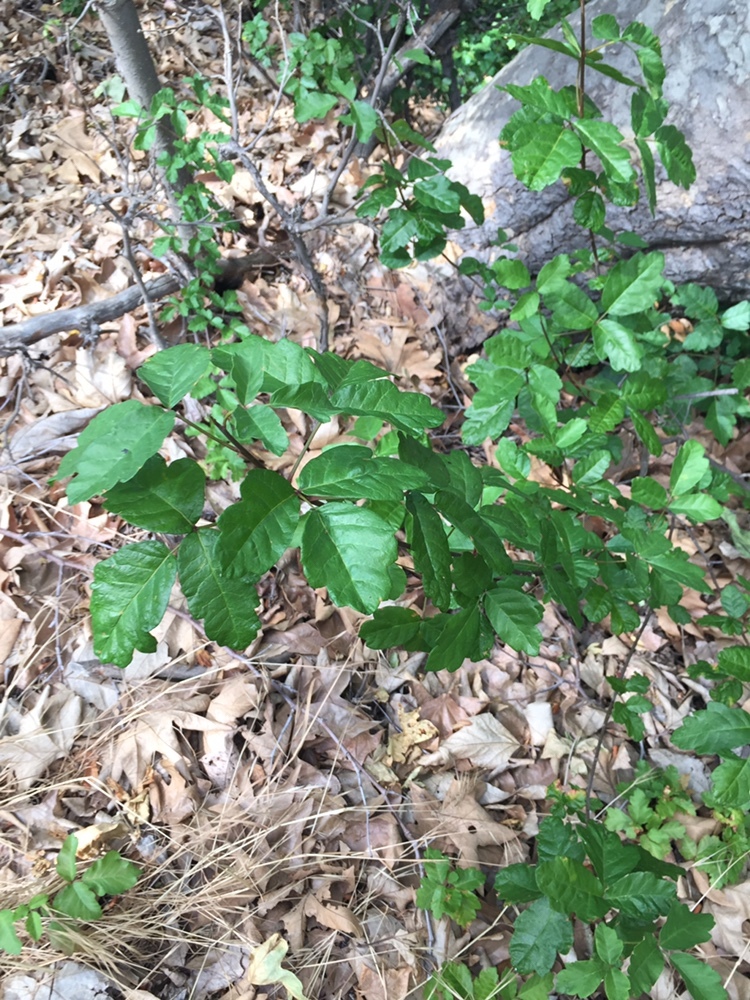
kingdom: Plantae
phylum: Tracheophyta
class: Magnoliopsida
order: Sapindales
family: Anacardiaceae
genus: Toxicodendron
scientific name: Toxicodendron diversilobum
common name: Pacific poison-oak
